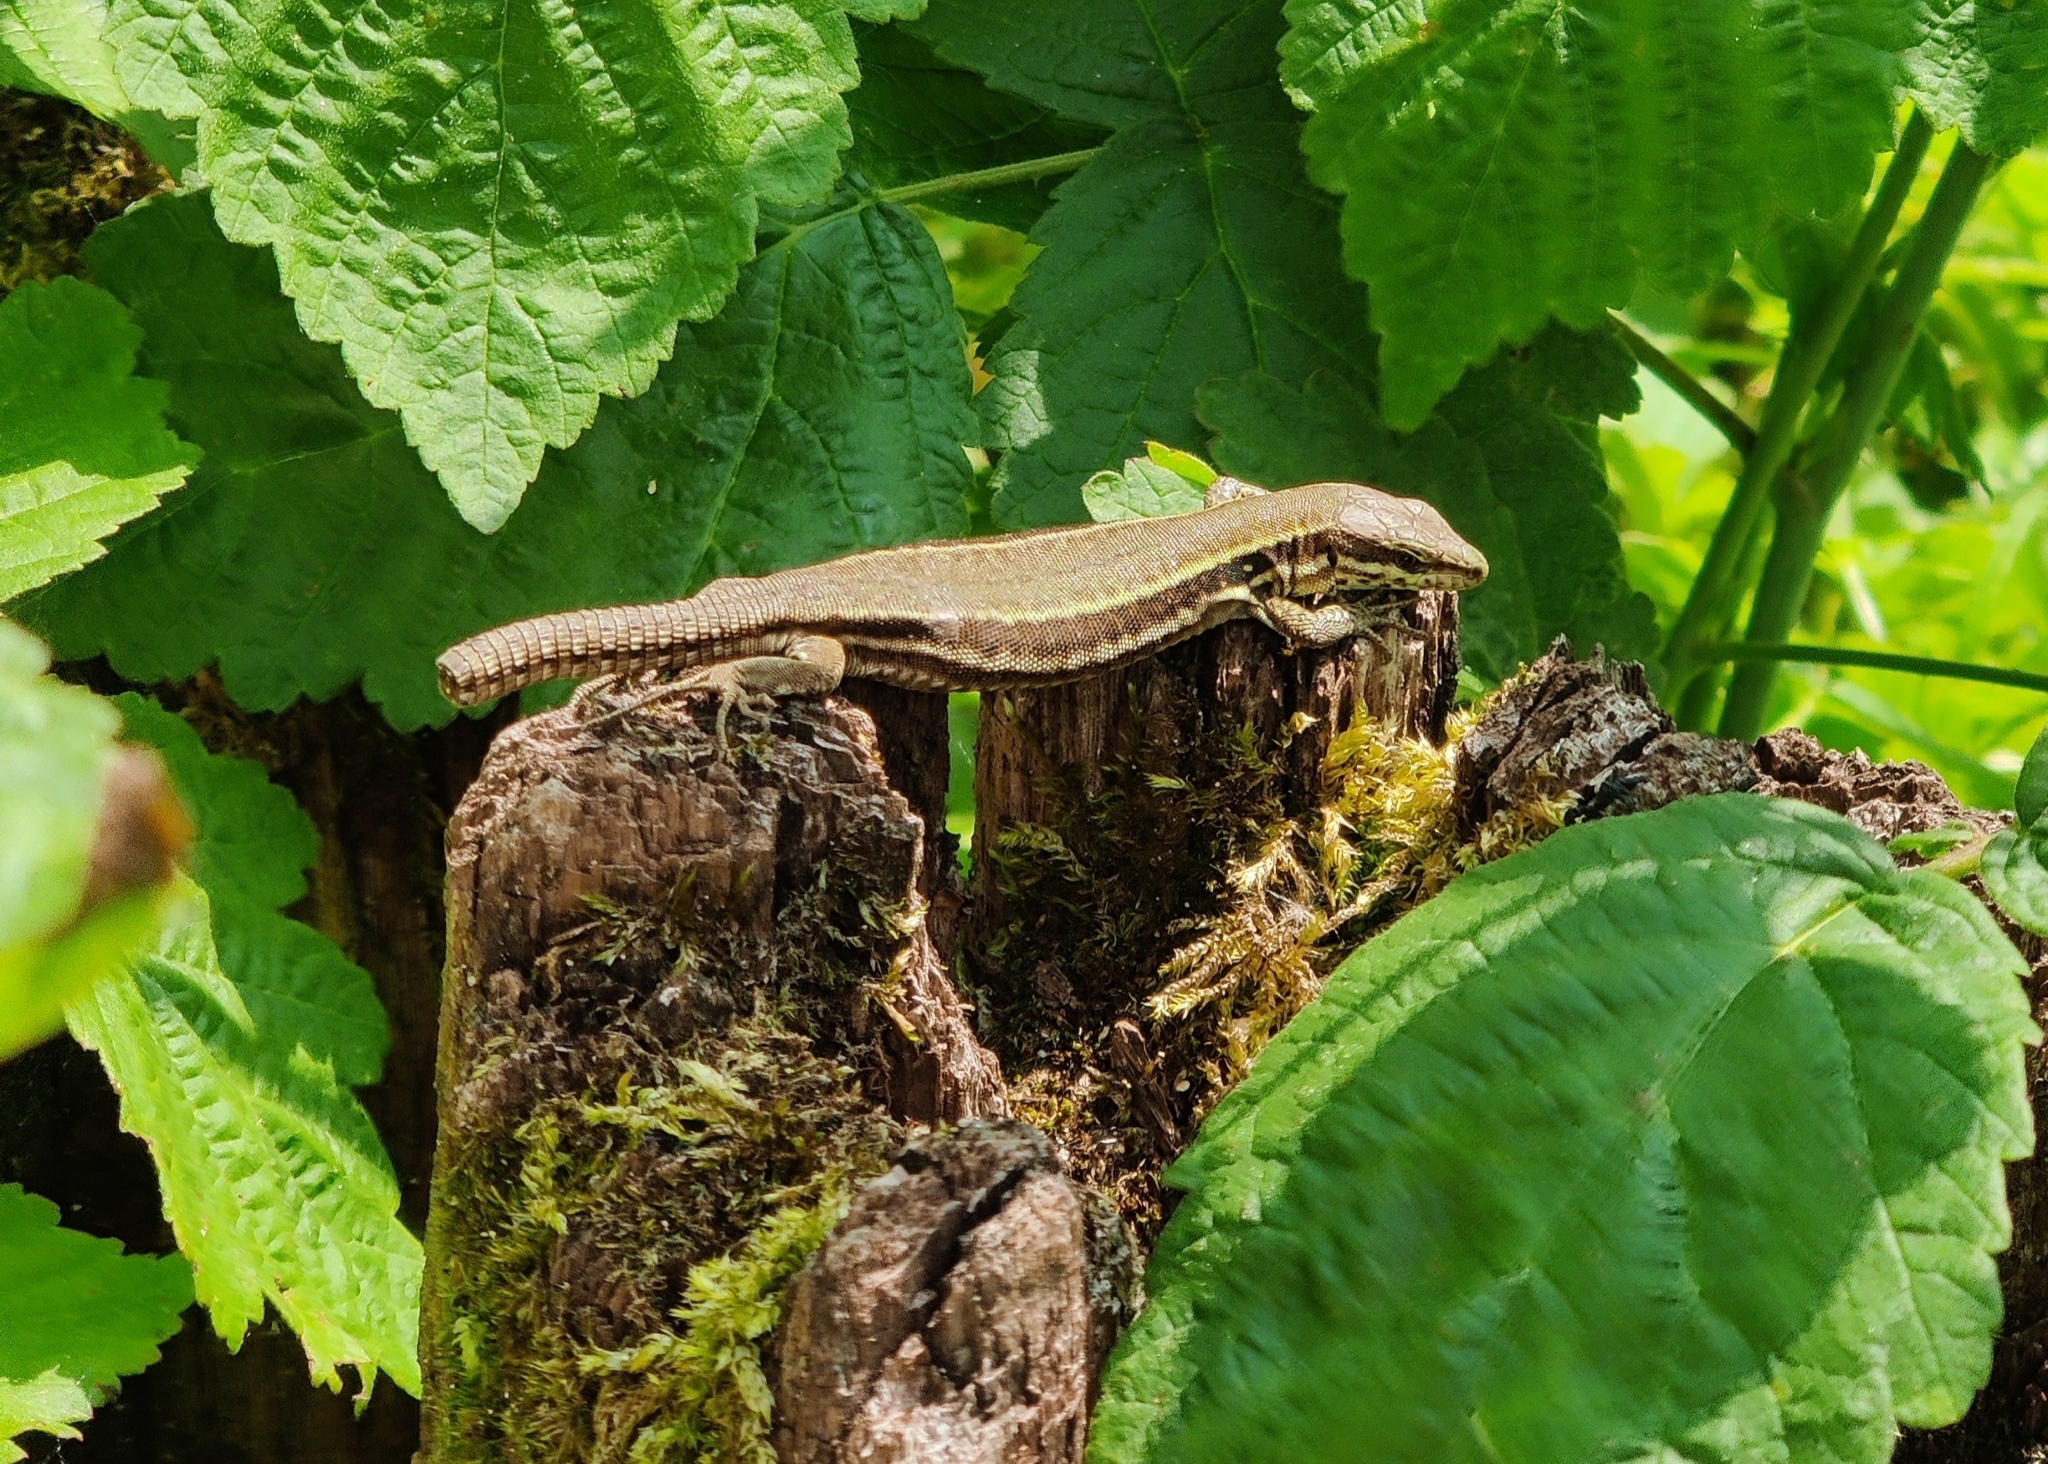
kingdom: Animalia
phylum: Chordata
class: Squamata
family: Lacertidae
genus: Podarcis
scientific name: Podarcis muralis
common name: Common wall lizard
